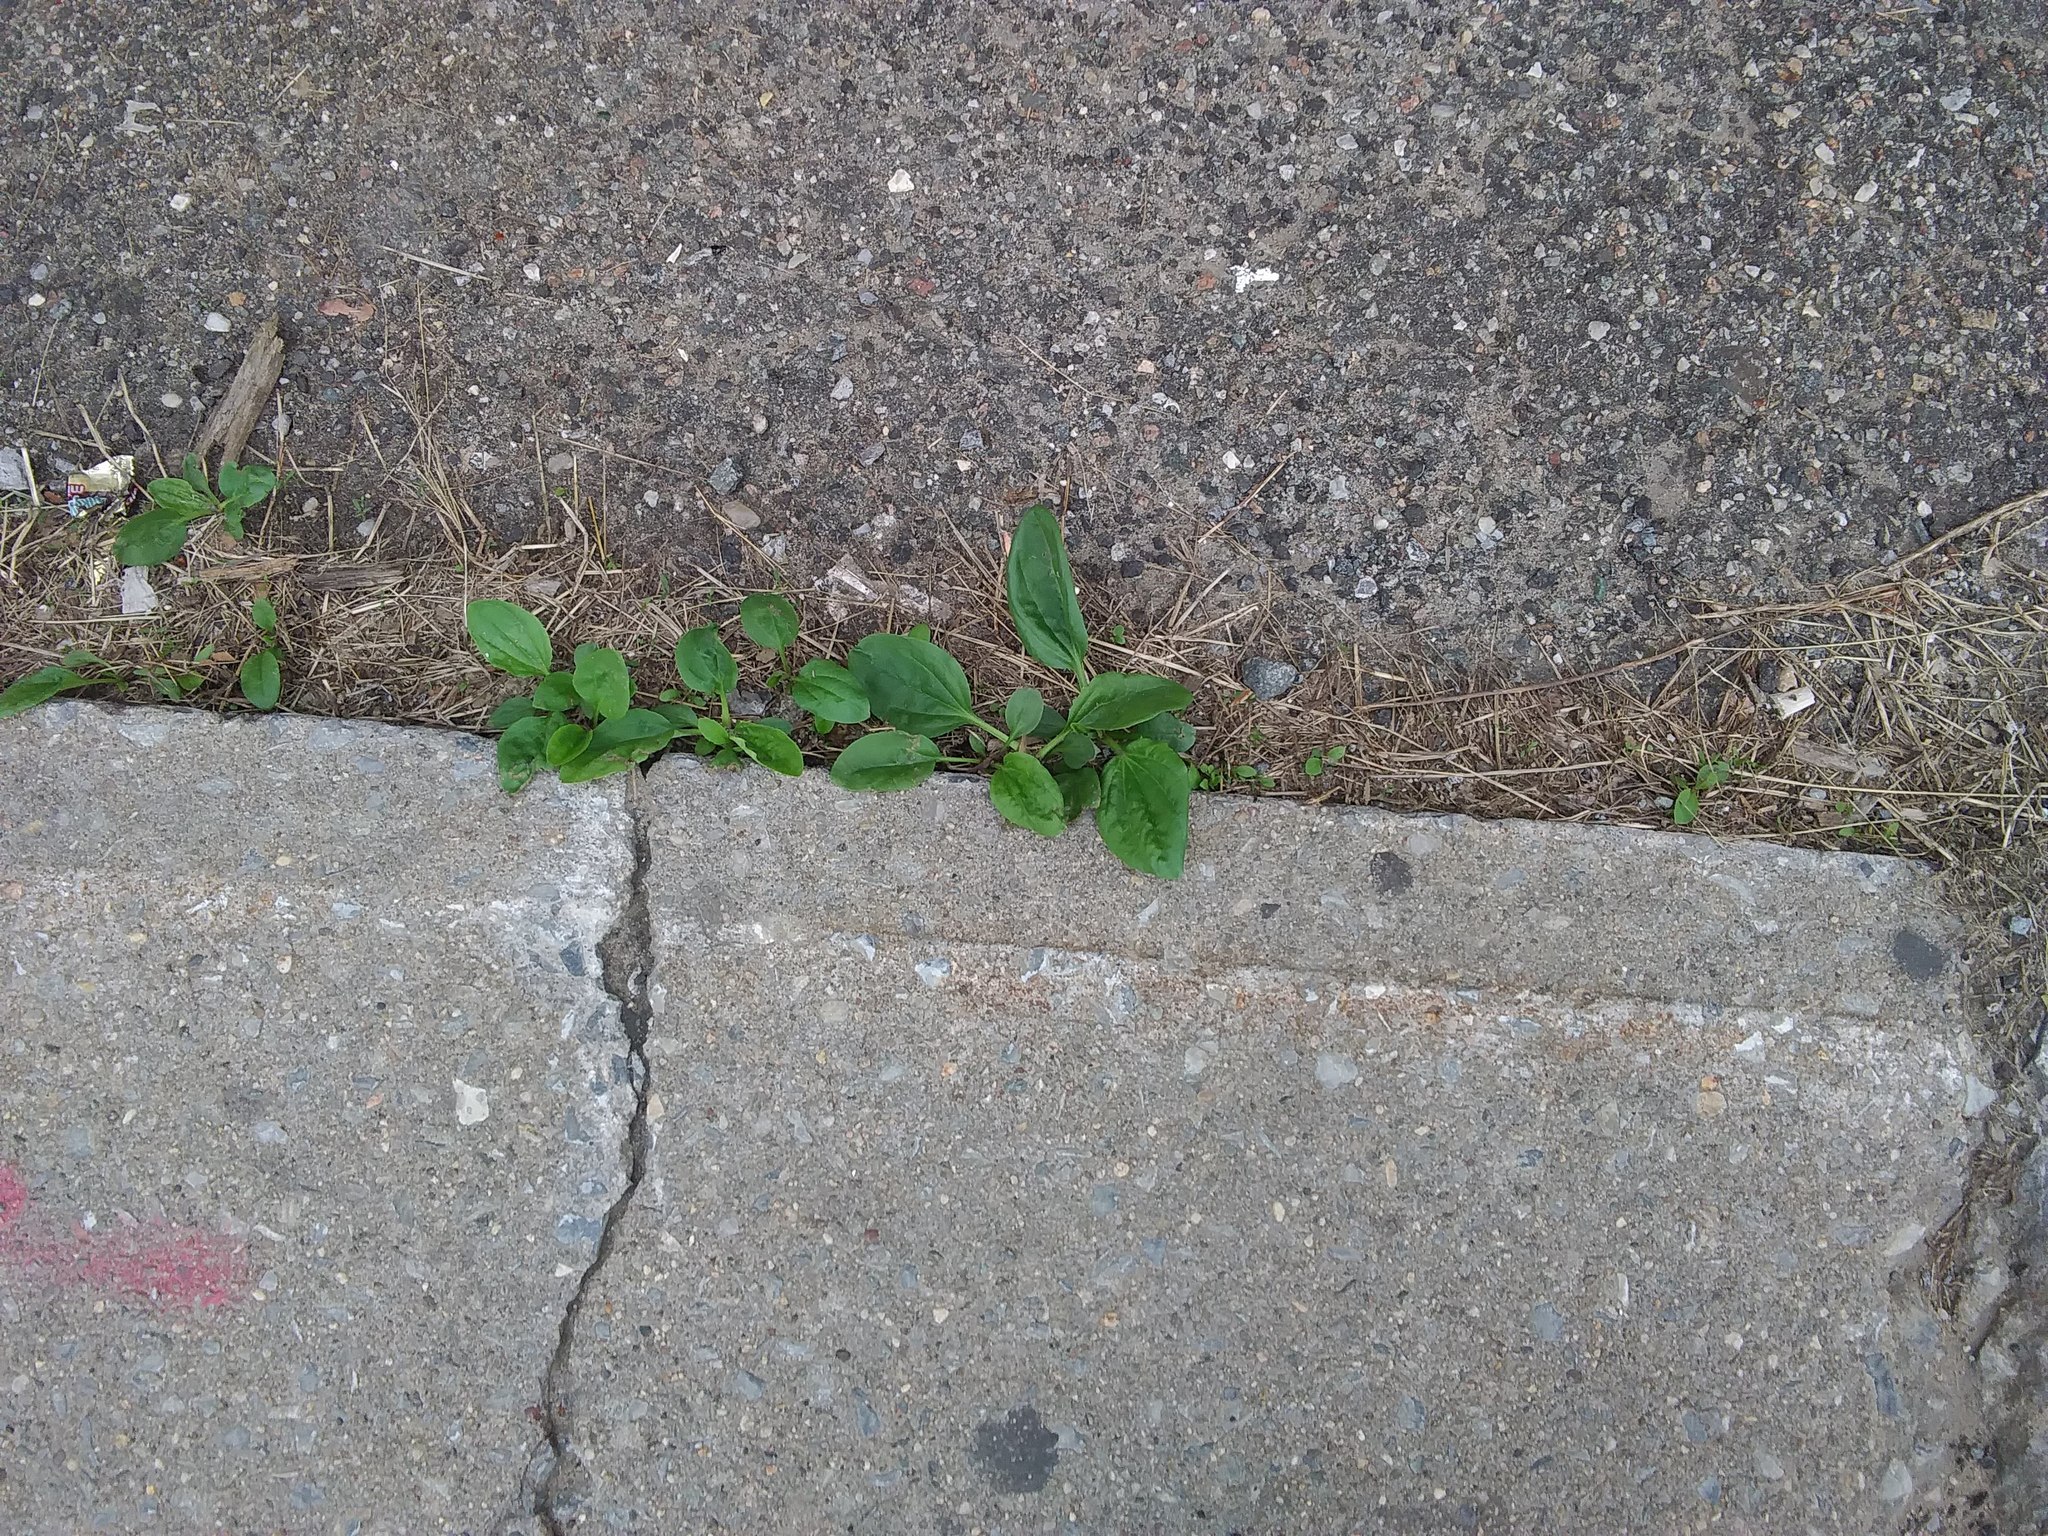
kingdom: Plantae
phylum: Tracheophyta
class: Magnoliopsida
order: Lamiales
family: Plantaginaceae
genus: Plantago
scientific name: Plantago major
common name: Common plantain
